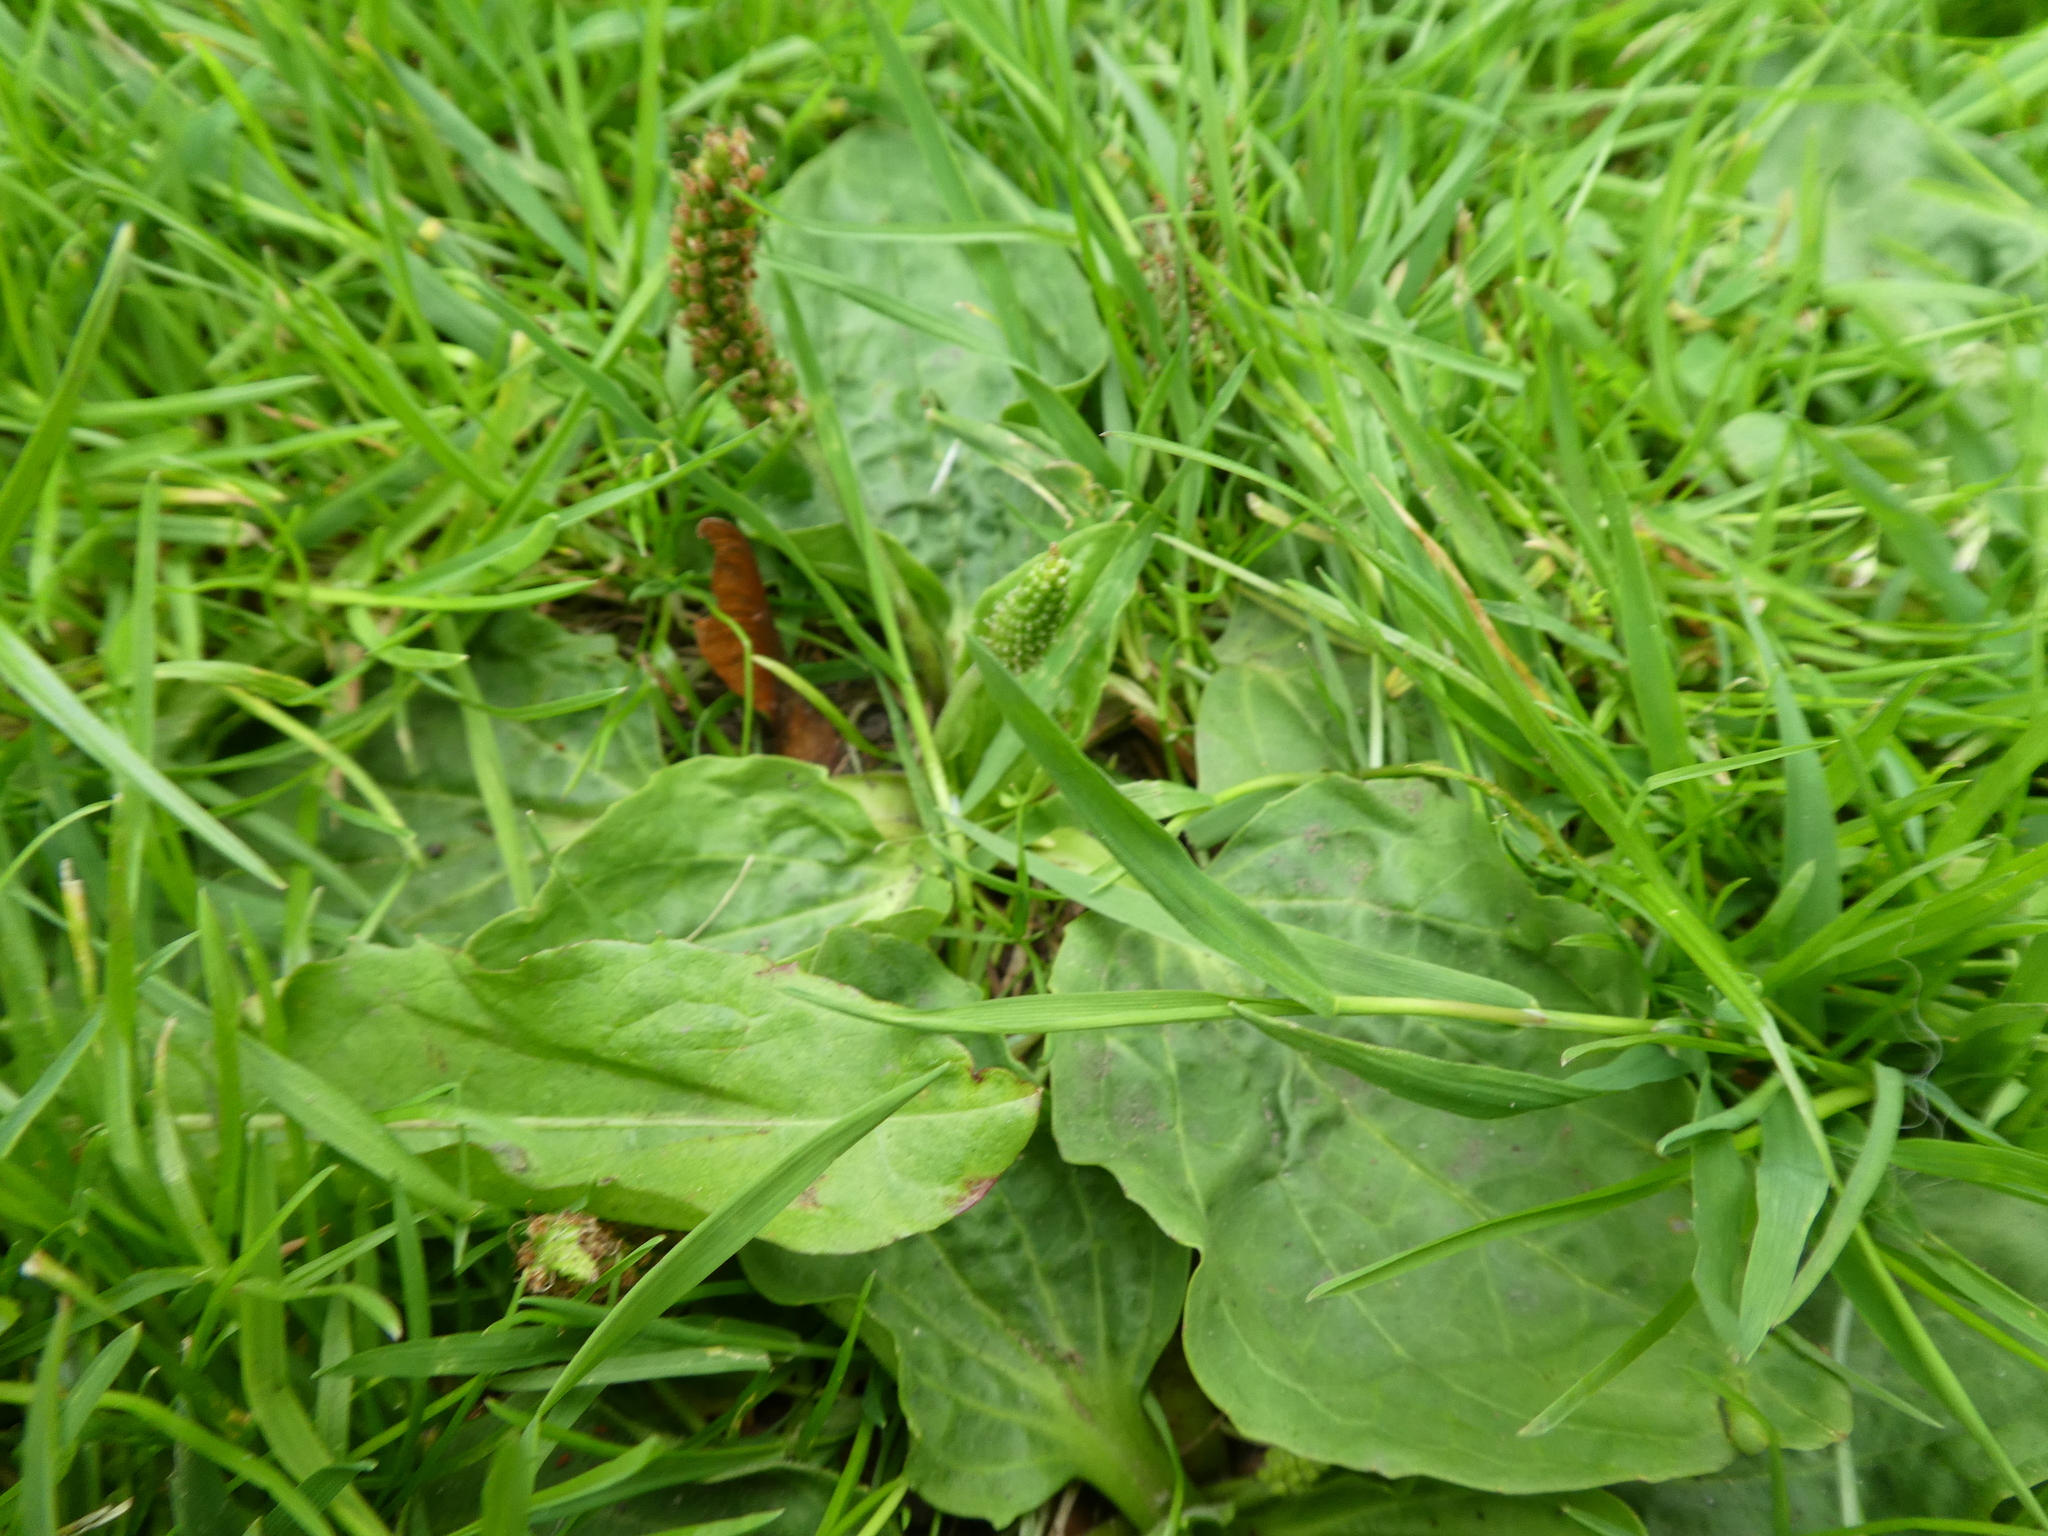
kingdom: Plantae
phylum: Tracheophyta
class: Magnoliopsida
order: Lamiales
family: Plantaginaceae
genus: Plantago
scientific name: Plantago major
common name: Common plantain
